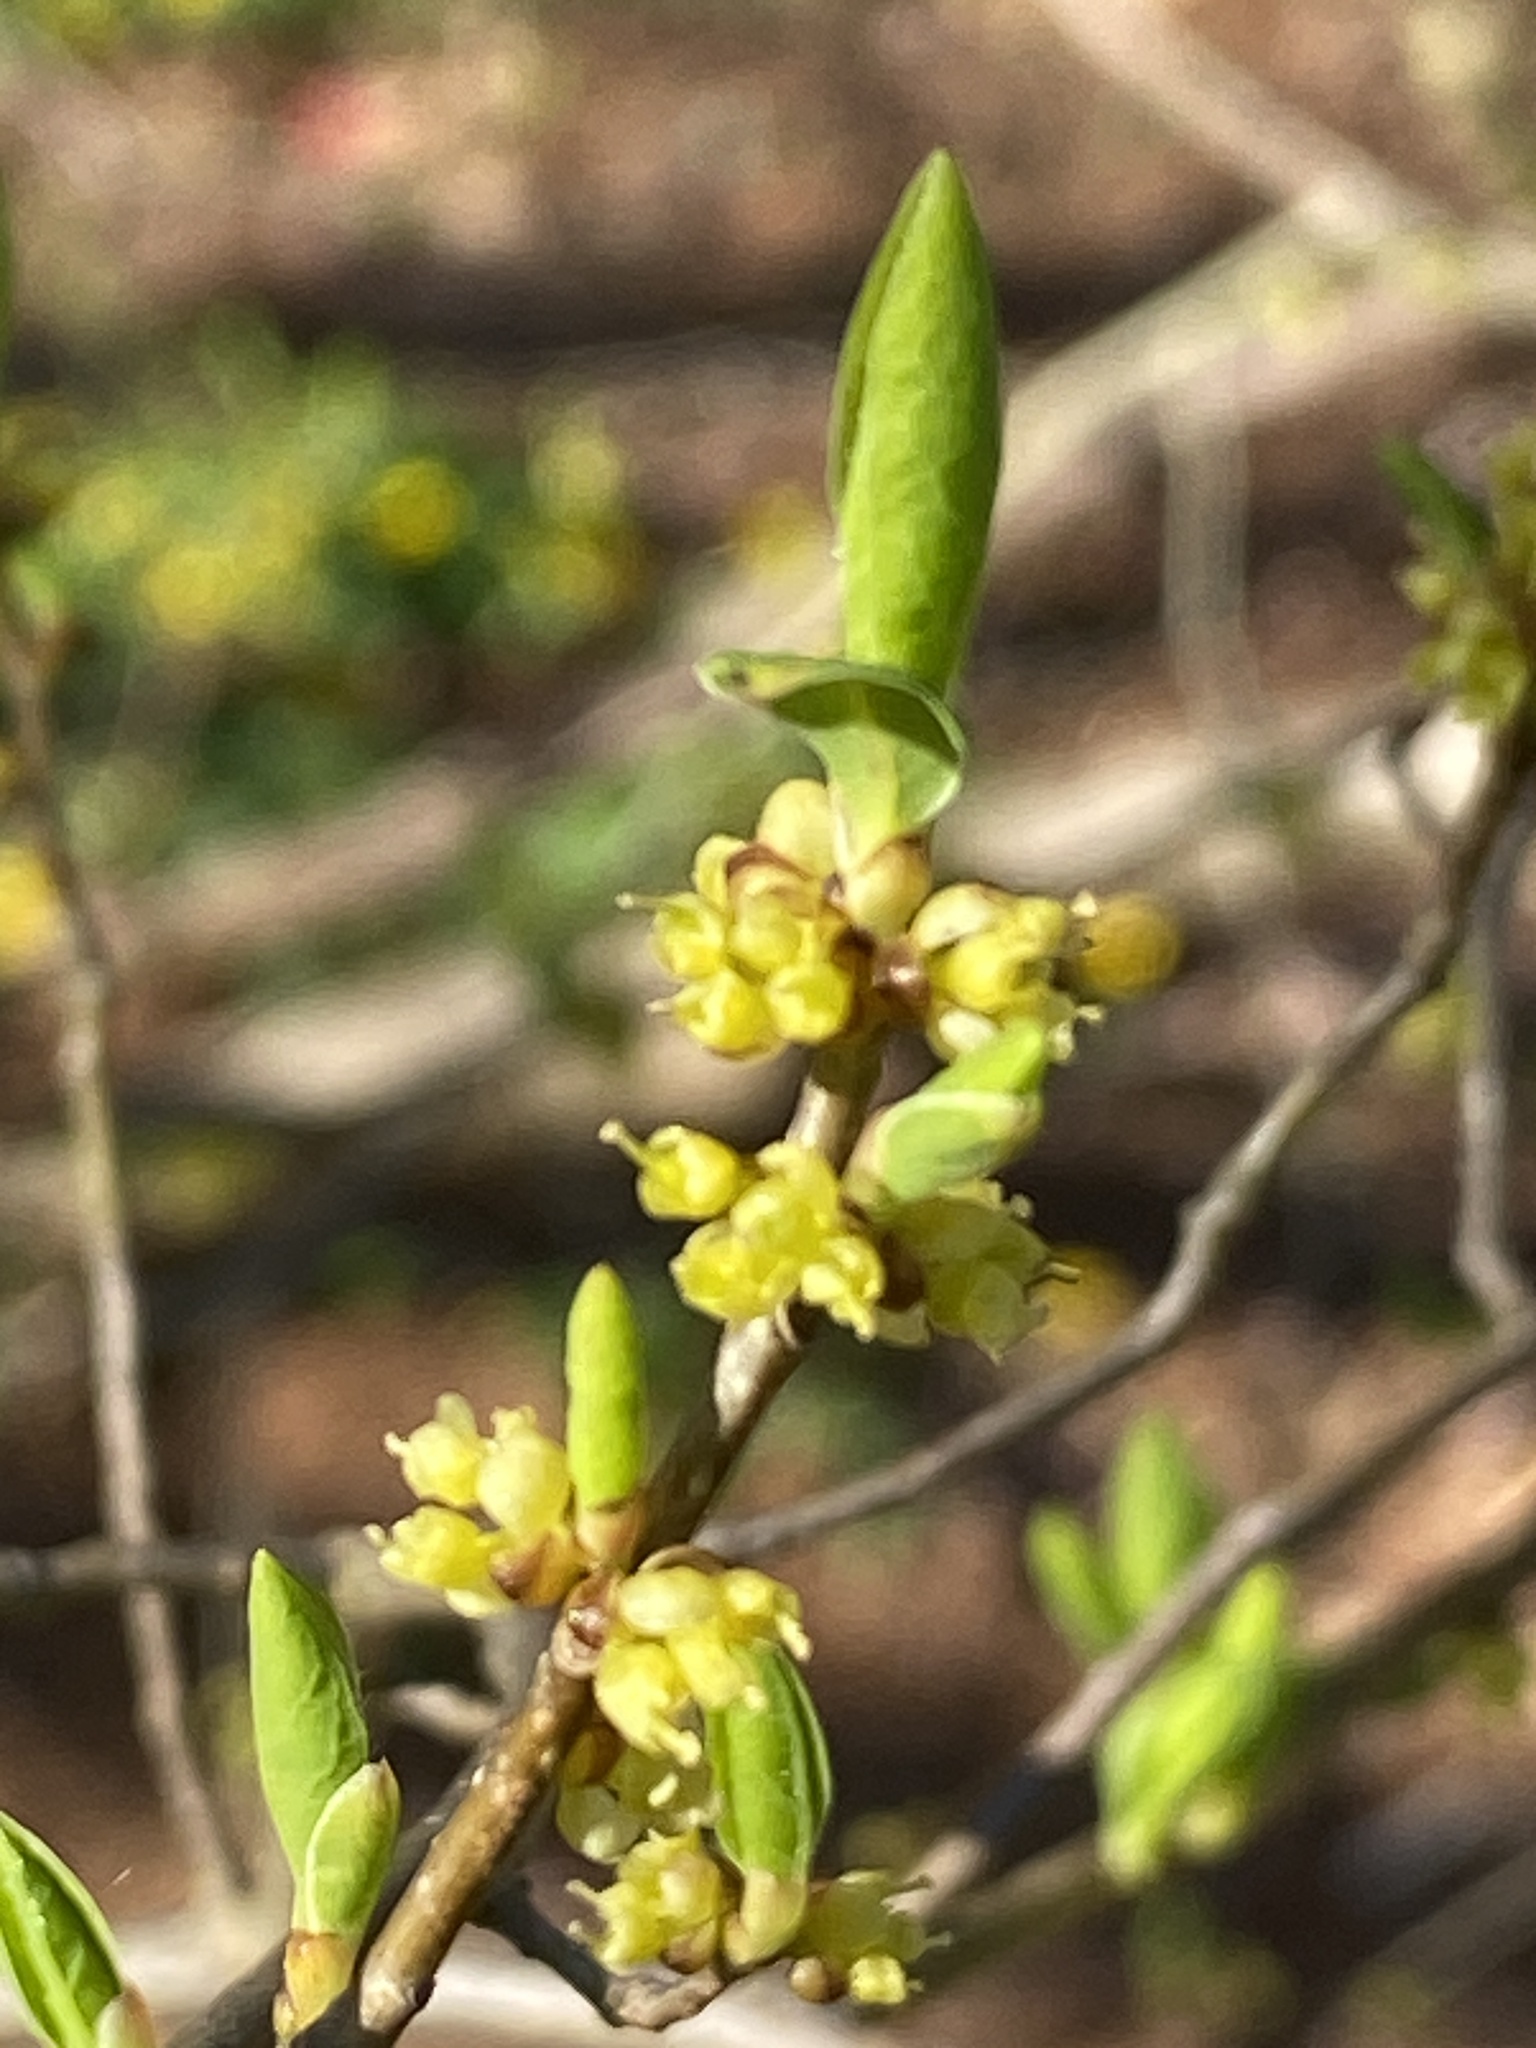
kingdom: Plantae
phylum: Tracheophyta
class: Magnoliopsida
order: Laurales
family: Lauraceae
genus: Lindera
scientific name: Lindera benzoin
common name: Spicebush
